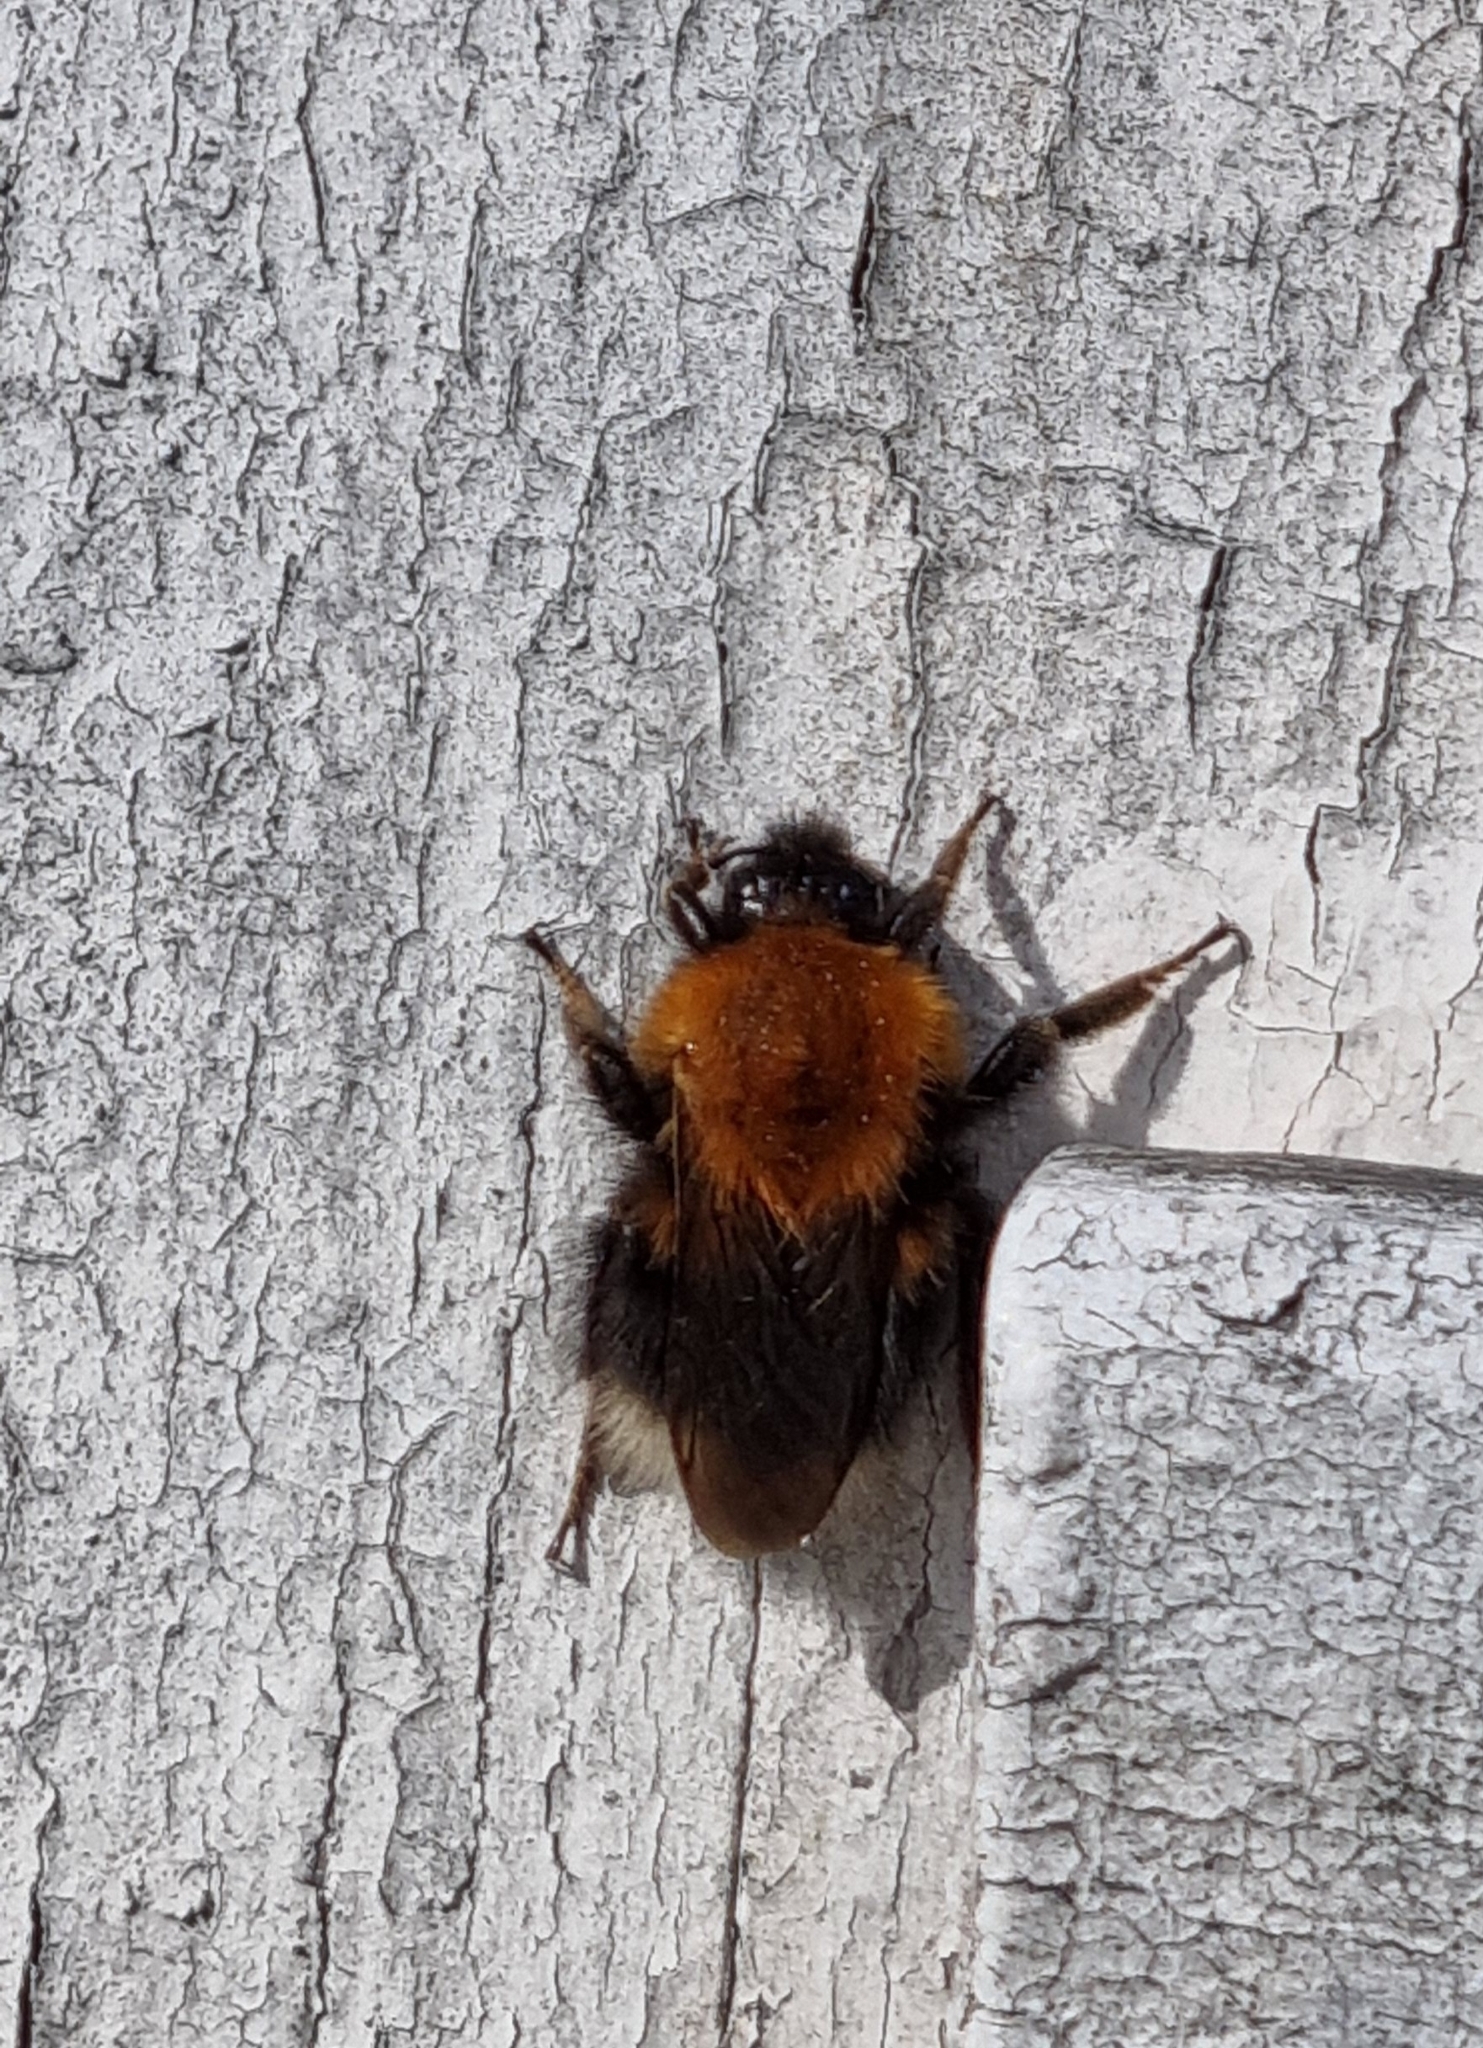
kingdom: Animalia
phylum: Arthropoda
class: Insecta
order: Hymenoptera
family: Apidae
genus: Bombus
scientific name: Bombus hypnorum
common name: New garden bumblebee
